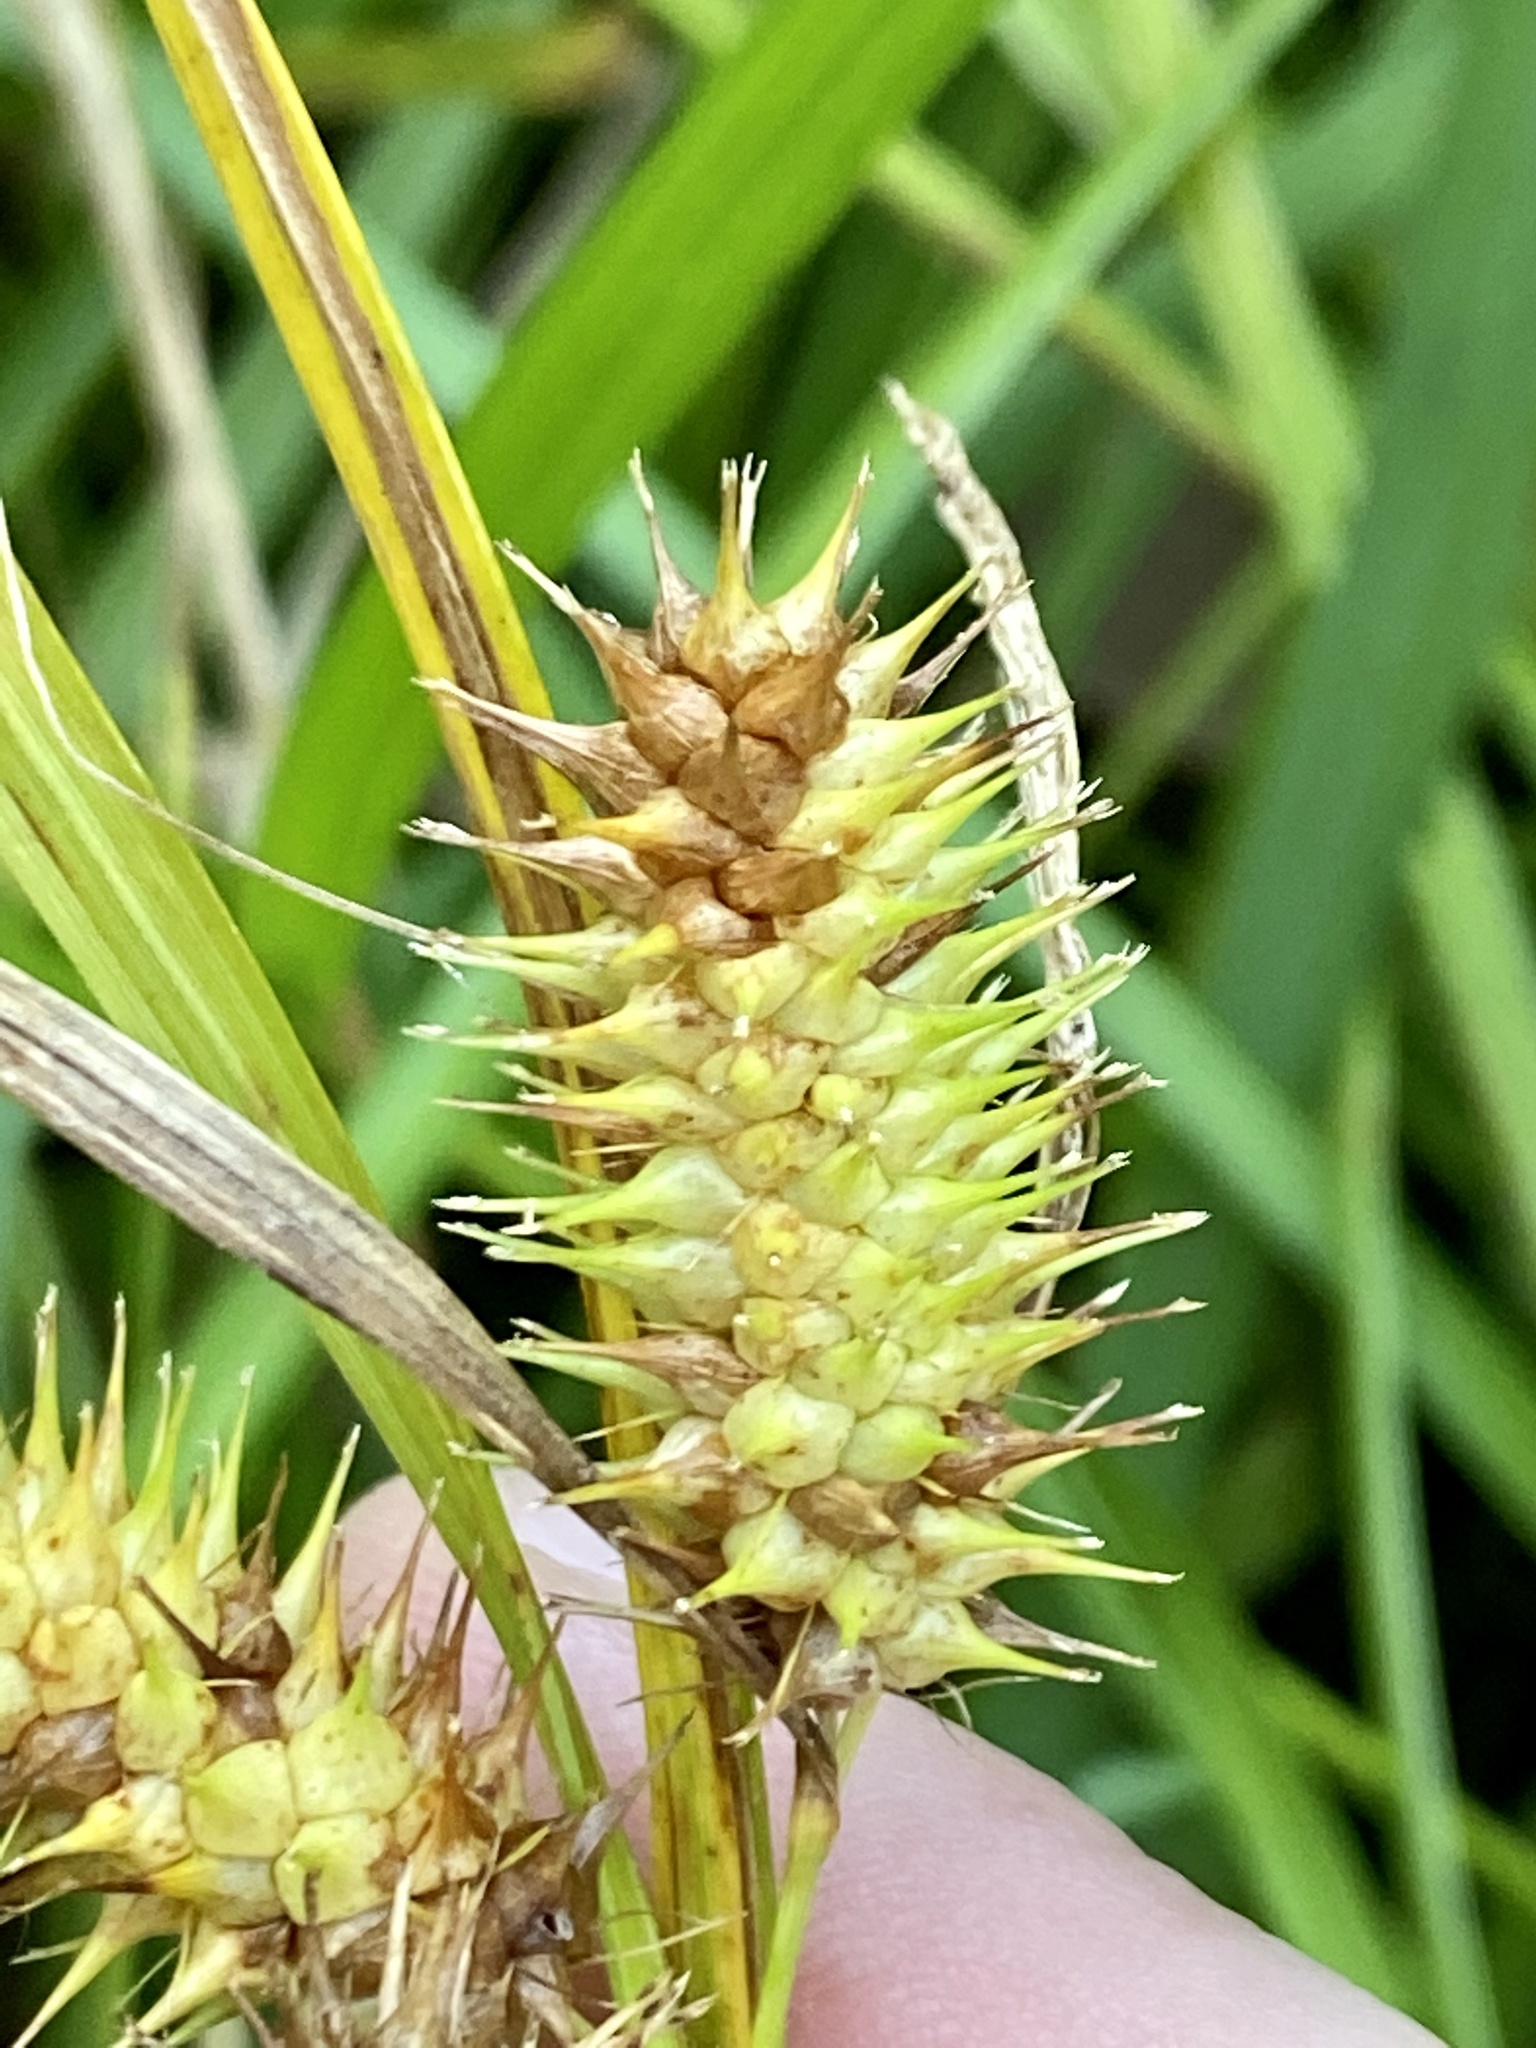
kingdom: Plantae
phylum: Tracheophyta
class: Liliopsida
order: Poales
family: Cyperaceae
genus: Carex
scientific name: Carex lurida
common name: Sallow sedge
